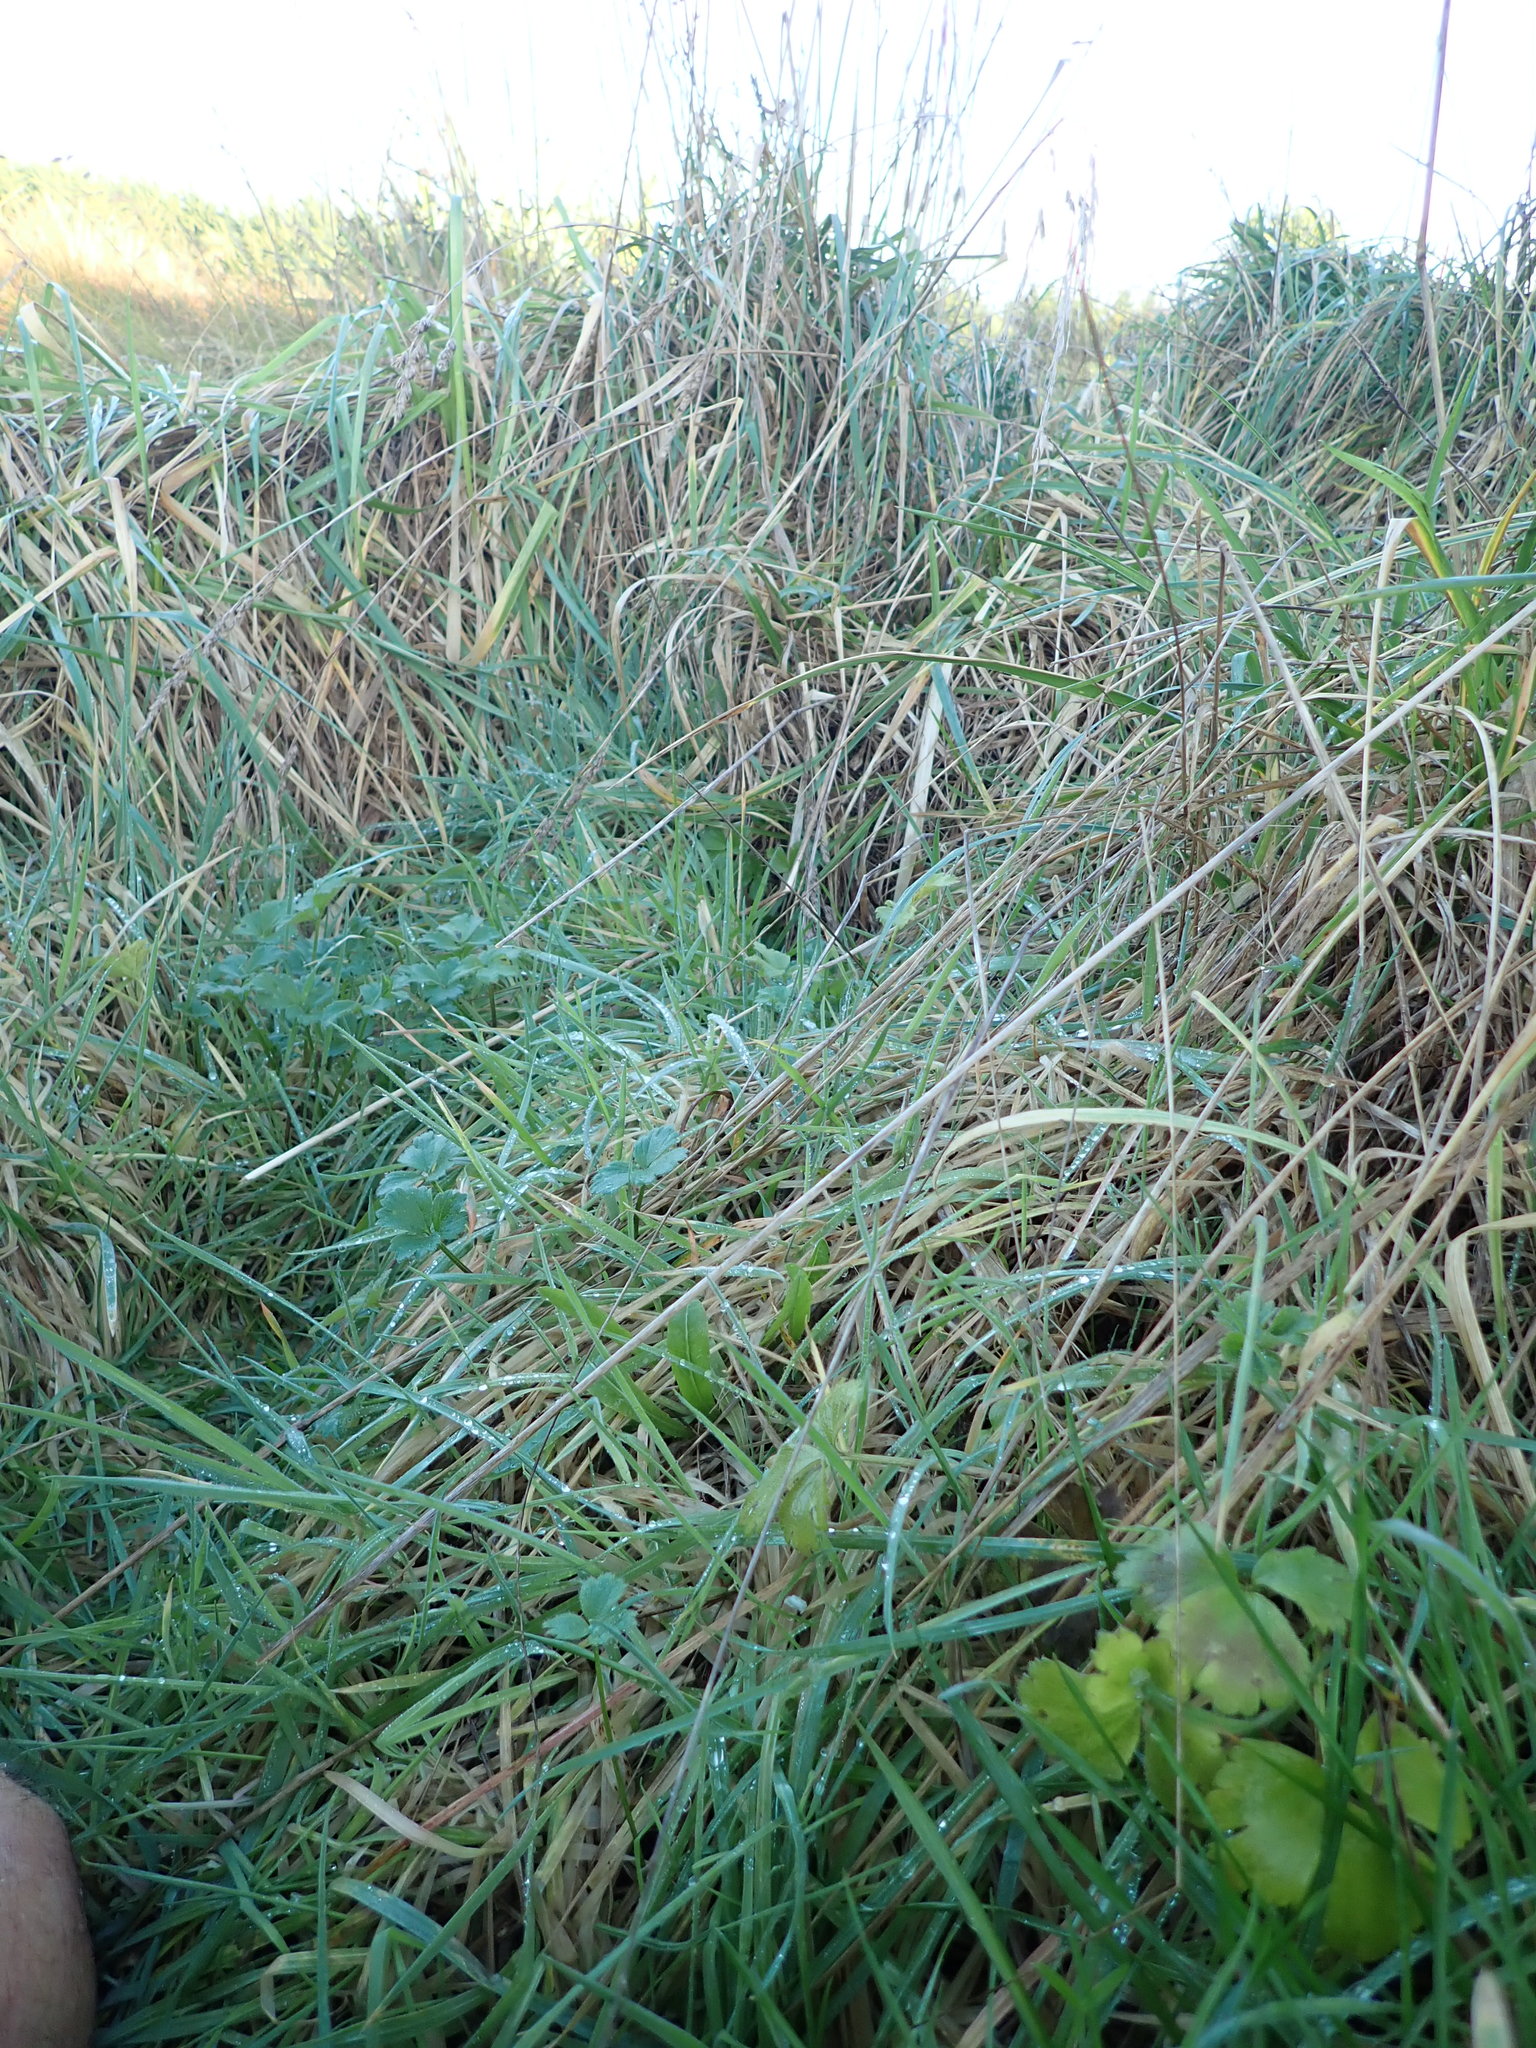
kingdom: Plantae
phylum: Tracheophyta
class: Magnoliopsida
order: Ranunculales
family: Ranunculaceae
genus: Ranunculus
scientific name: Ranunculus repens
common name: Creeping buttercup
